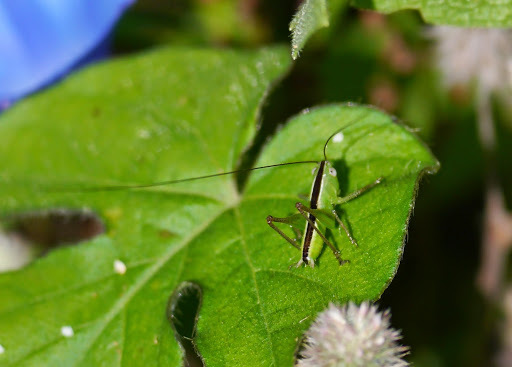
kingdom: Animalia
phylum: Arthropoda
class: Insecta
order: Orthoptera
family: Tettigoniidae
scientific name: Tettigoniidae
